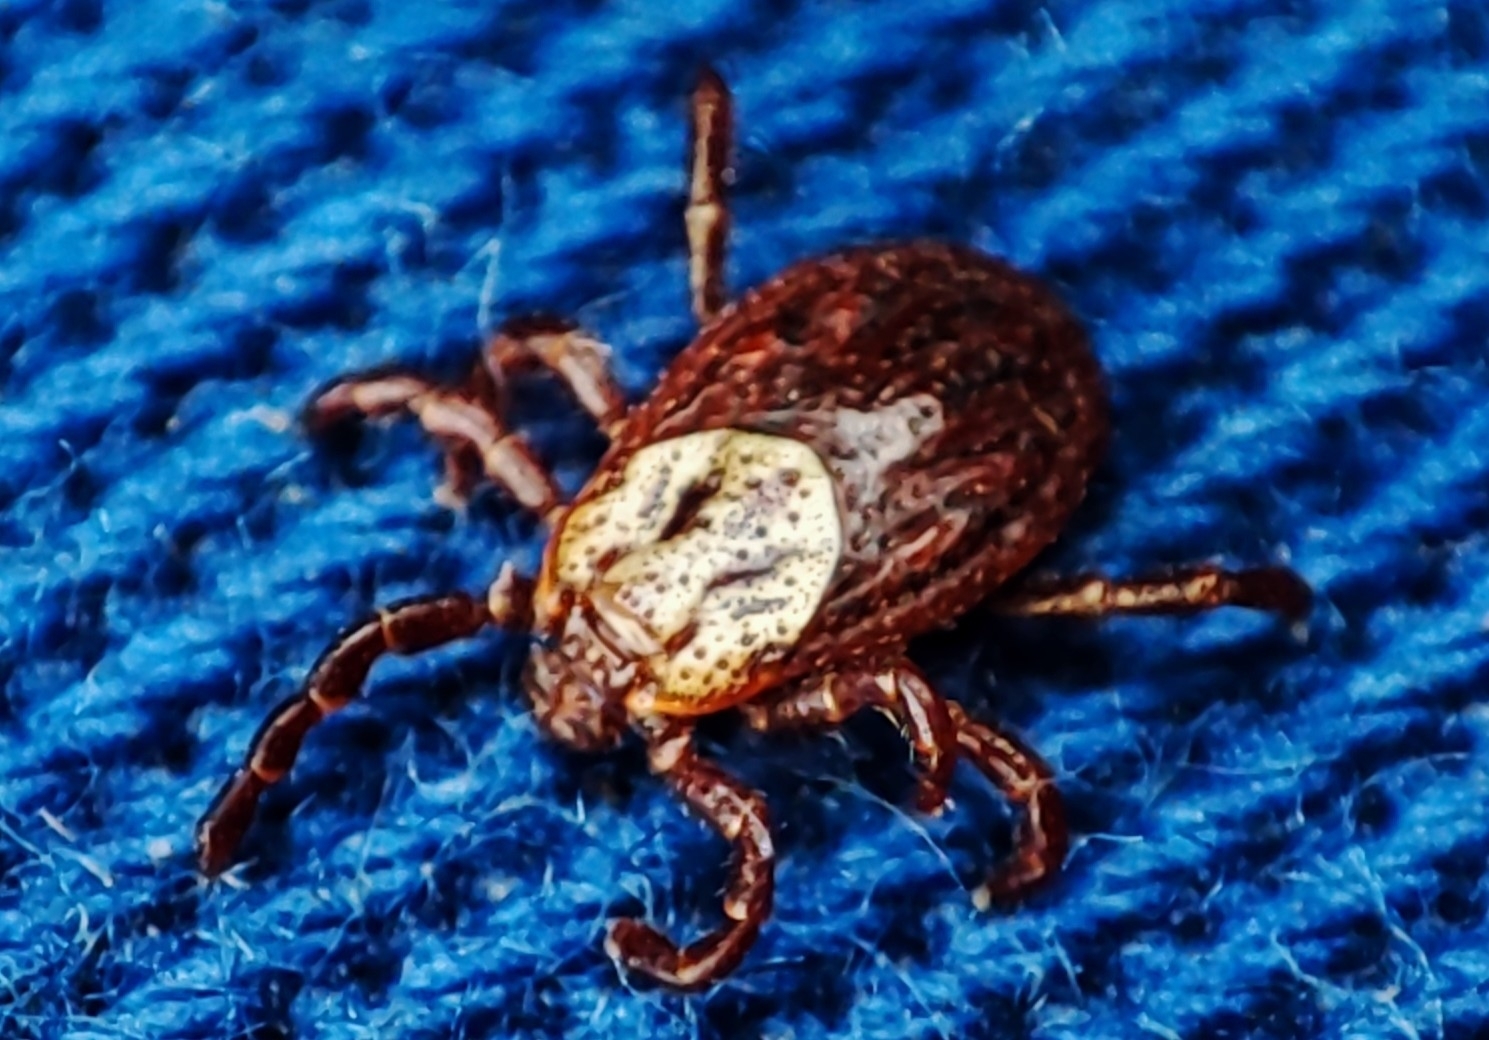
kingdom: Animalia
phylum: Arthropoda
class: Arachnida
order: Ixodida
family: Ixodidae
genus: Dermacentor
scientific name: Dermacentor reticulatus
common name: Ornate cow tick
